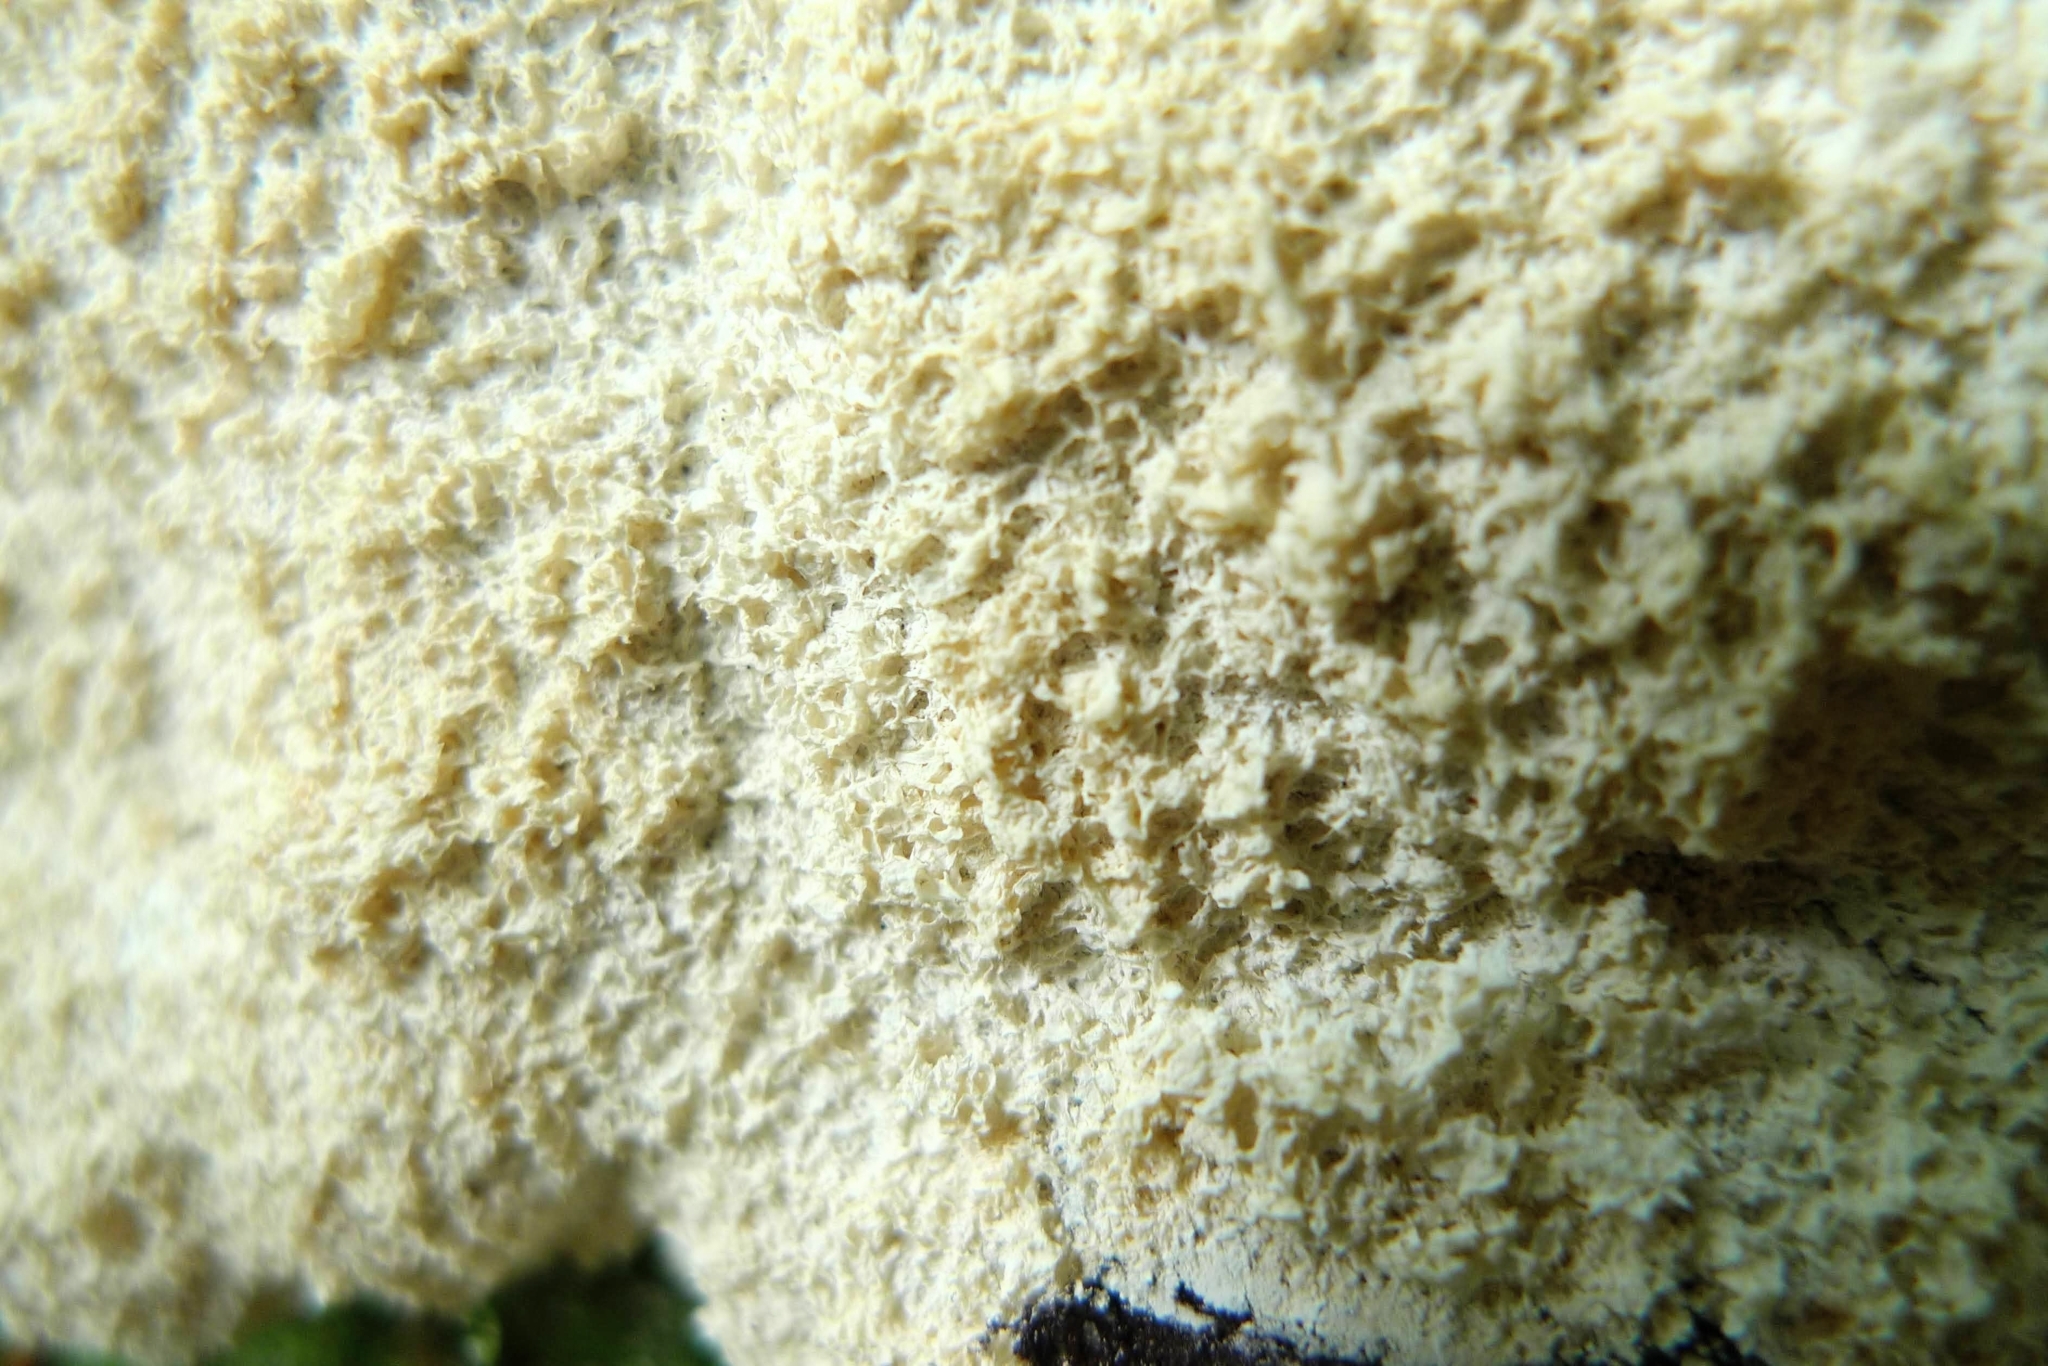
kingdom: Protozoa
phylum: Mycetozoa
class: Myxomycetes
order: Physarales
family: Physaraceae
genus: Fuligo
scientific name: Fuligo septica
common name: Dog vomit slime mold
